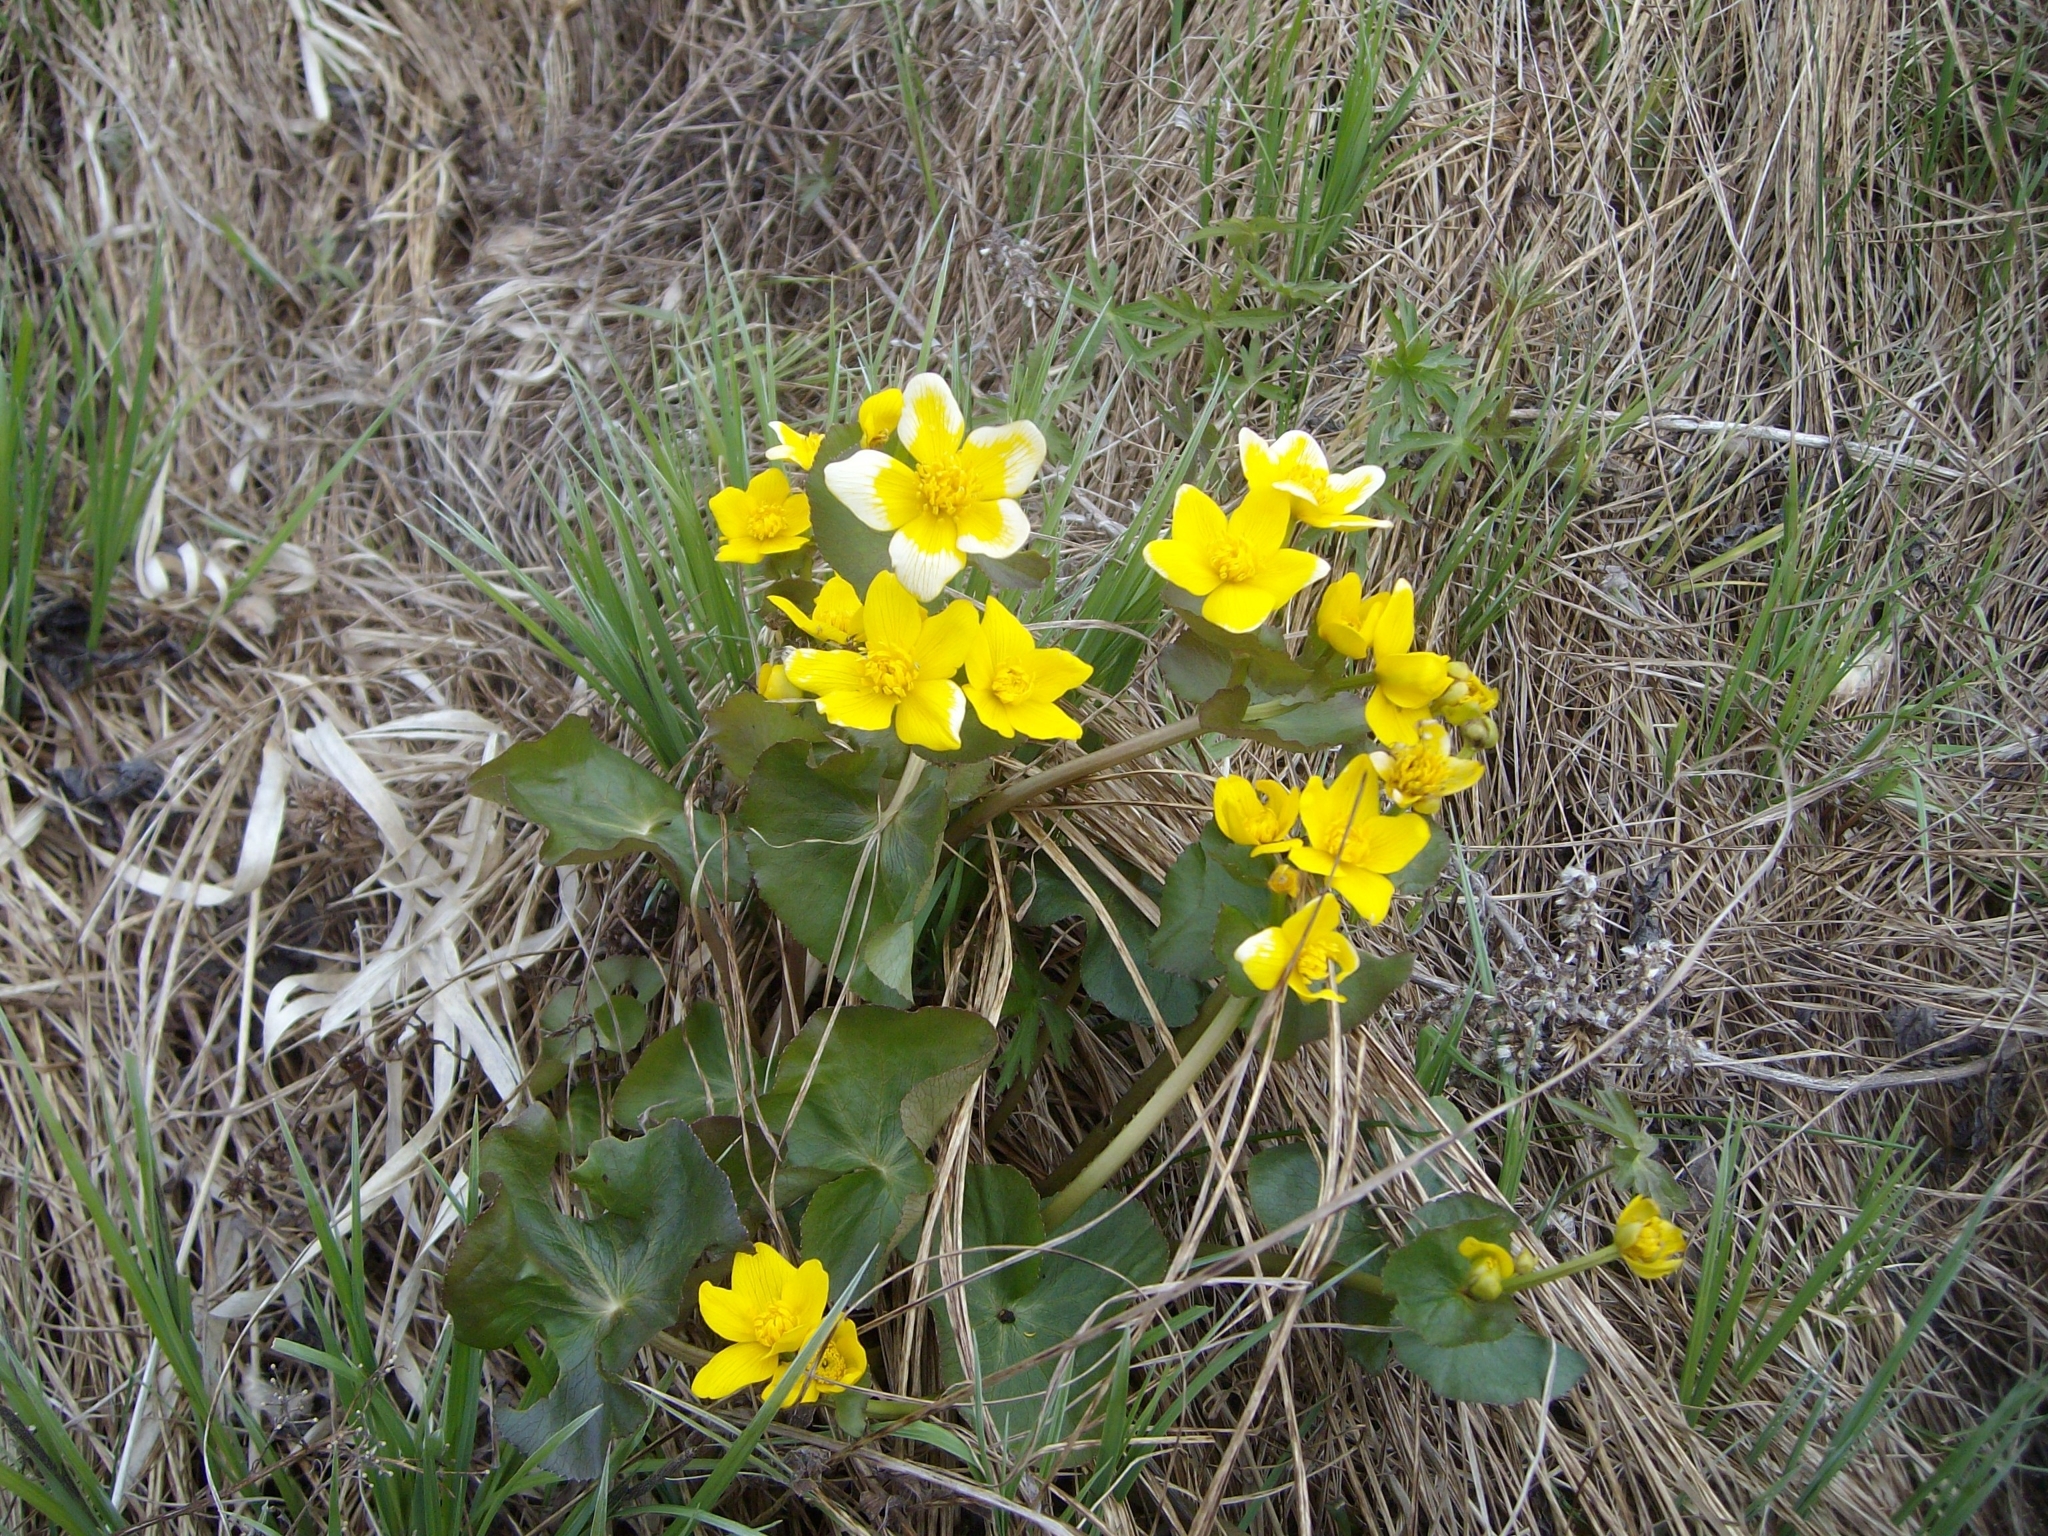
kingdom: Plantae
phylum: Tracheophyta
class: Magnoliopsida
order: Ranunculales
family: Ranunculaceae
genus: Caltha
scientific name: Caltha palustris
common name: Marsh marigold
